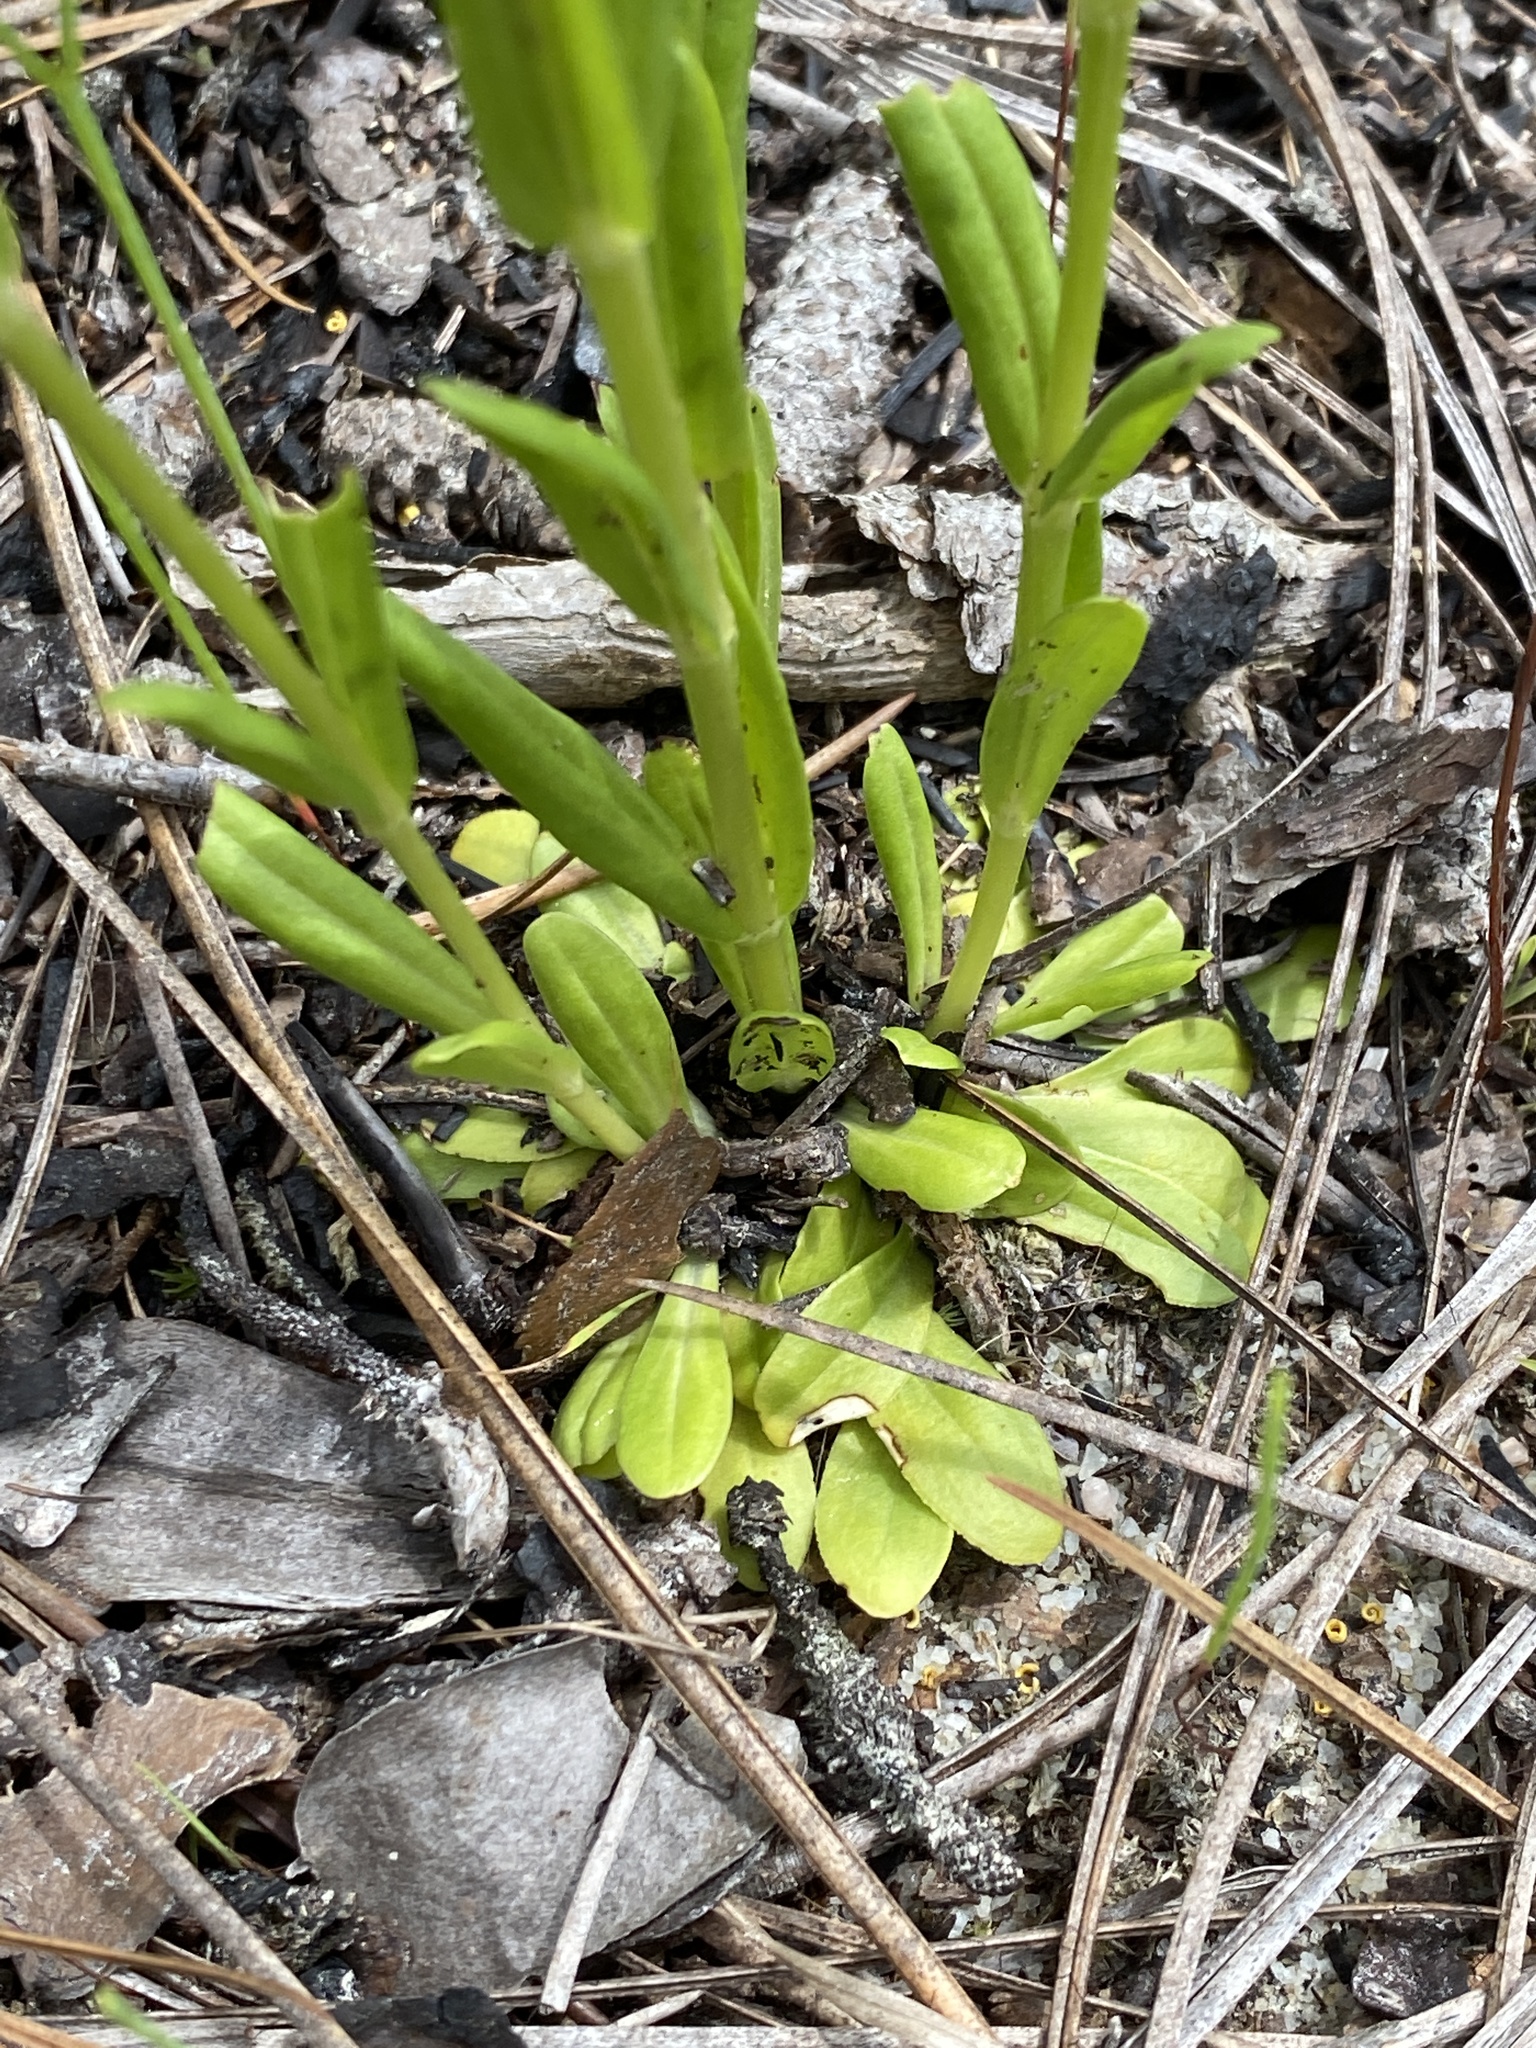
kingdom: Plantae
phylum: Tracheophyta
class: Magnoliopsida
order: Gentianales
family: Gentianaceae
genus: Sabatia
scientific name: Sabatia brachiata
